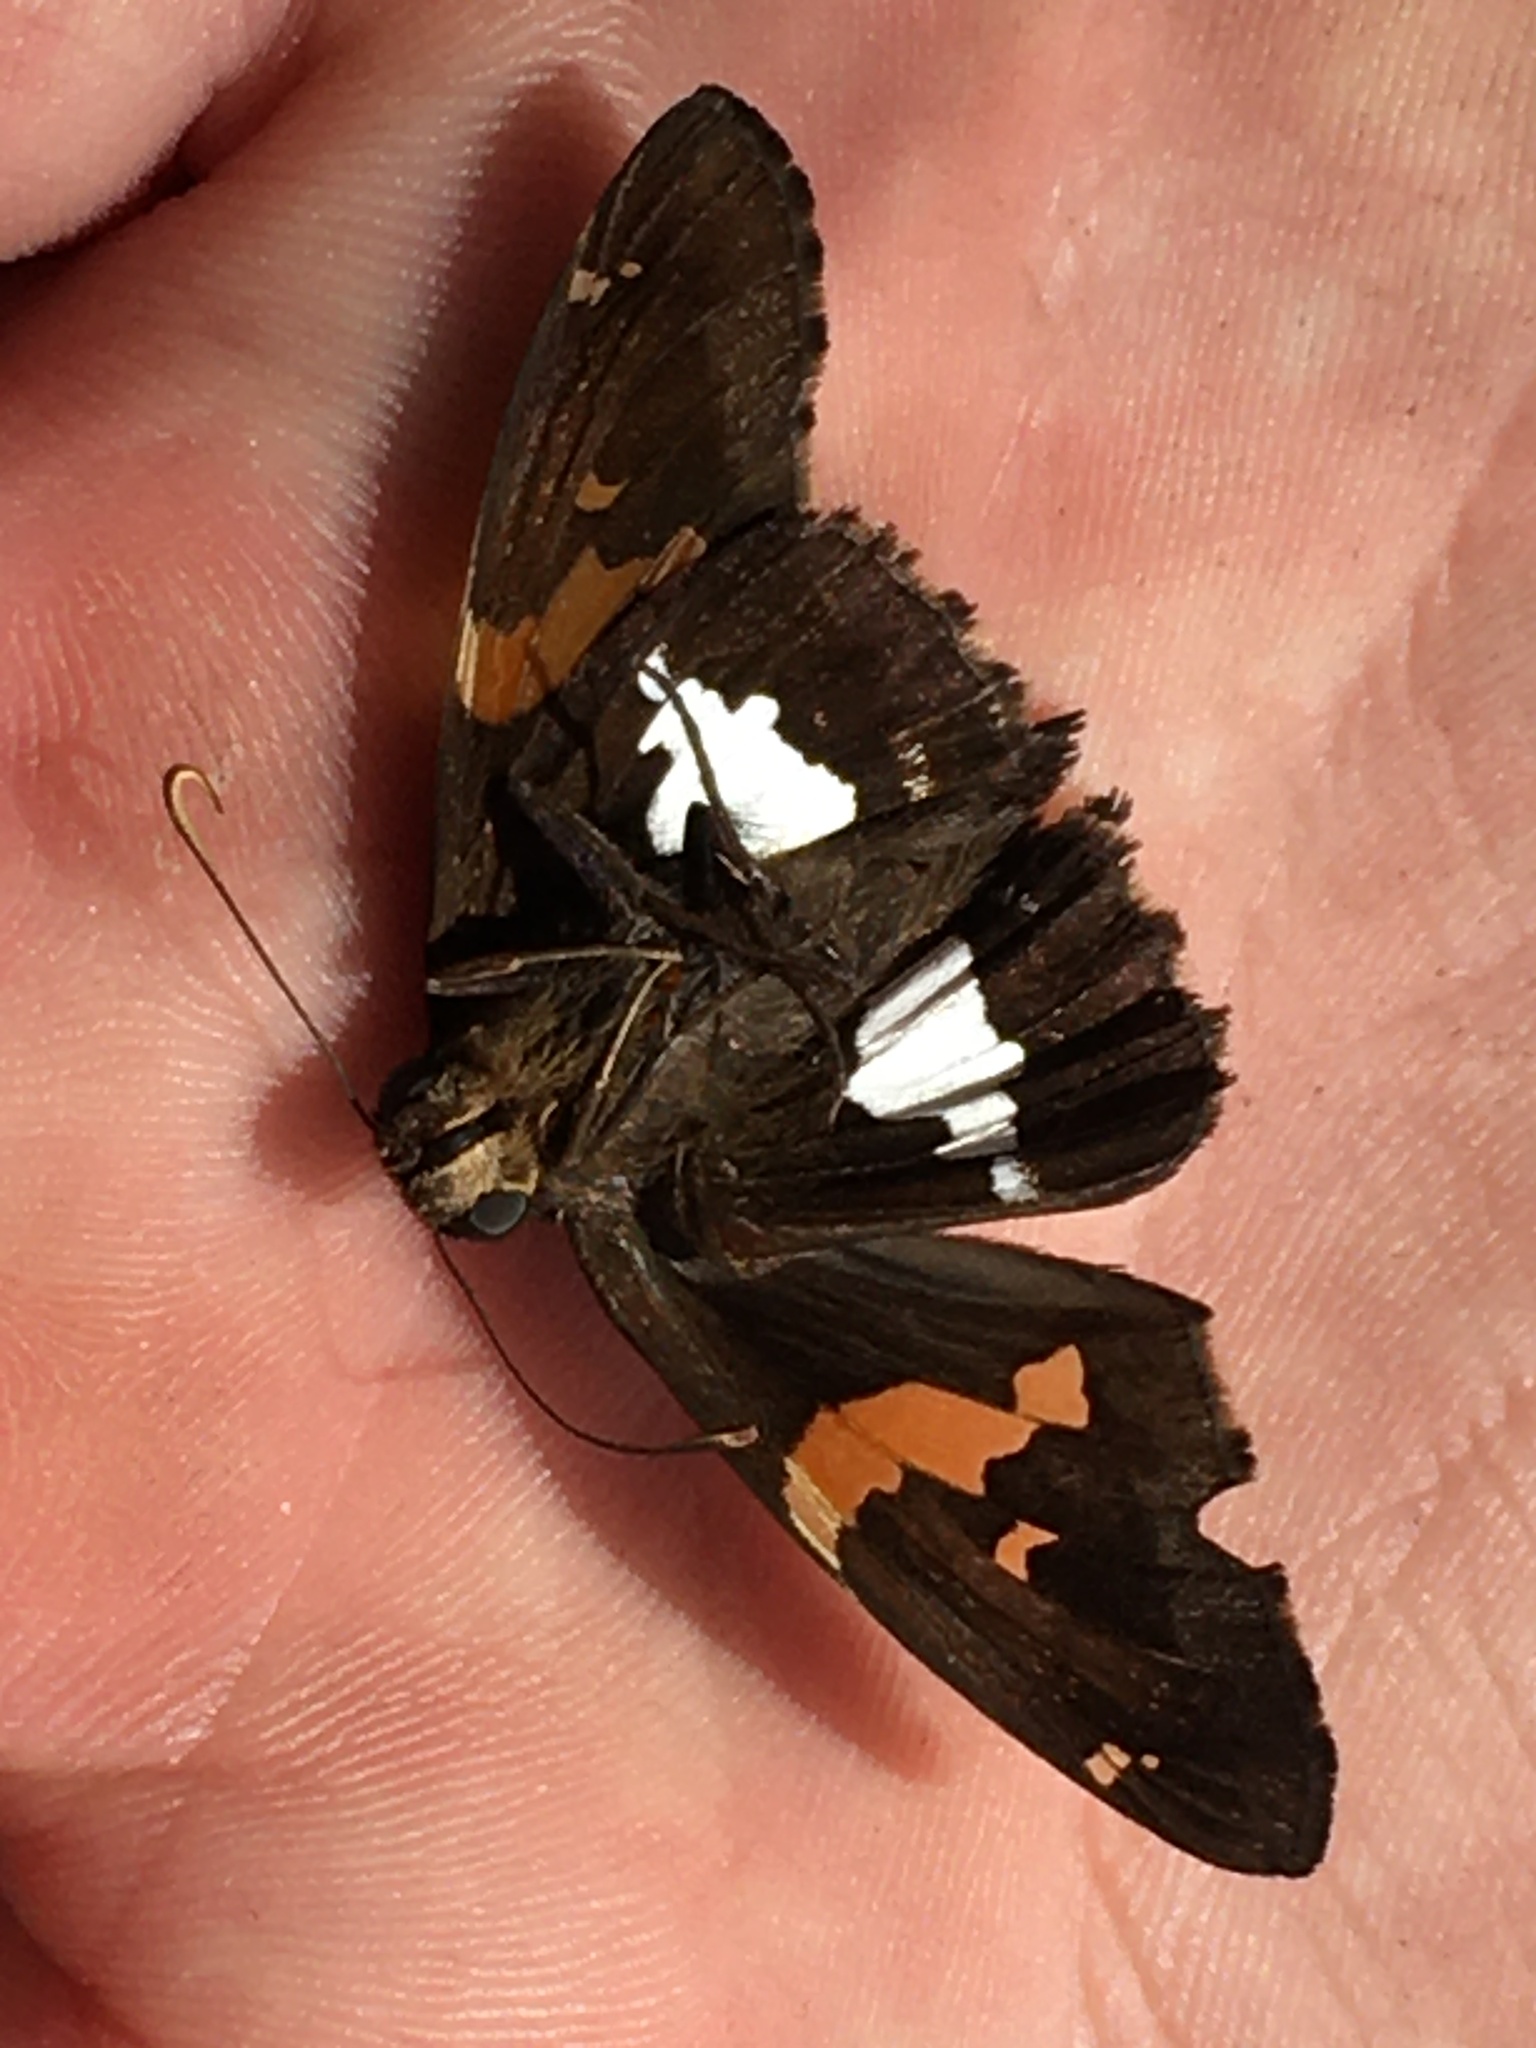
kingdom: Animalia
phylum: Arthropoda
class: Insecta
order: Lepidoptera
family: Hesperiidae
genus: Epargyreus
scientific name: Epargyreus clarus
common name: Silver-spotted skipper
